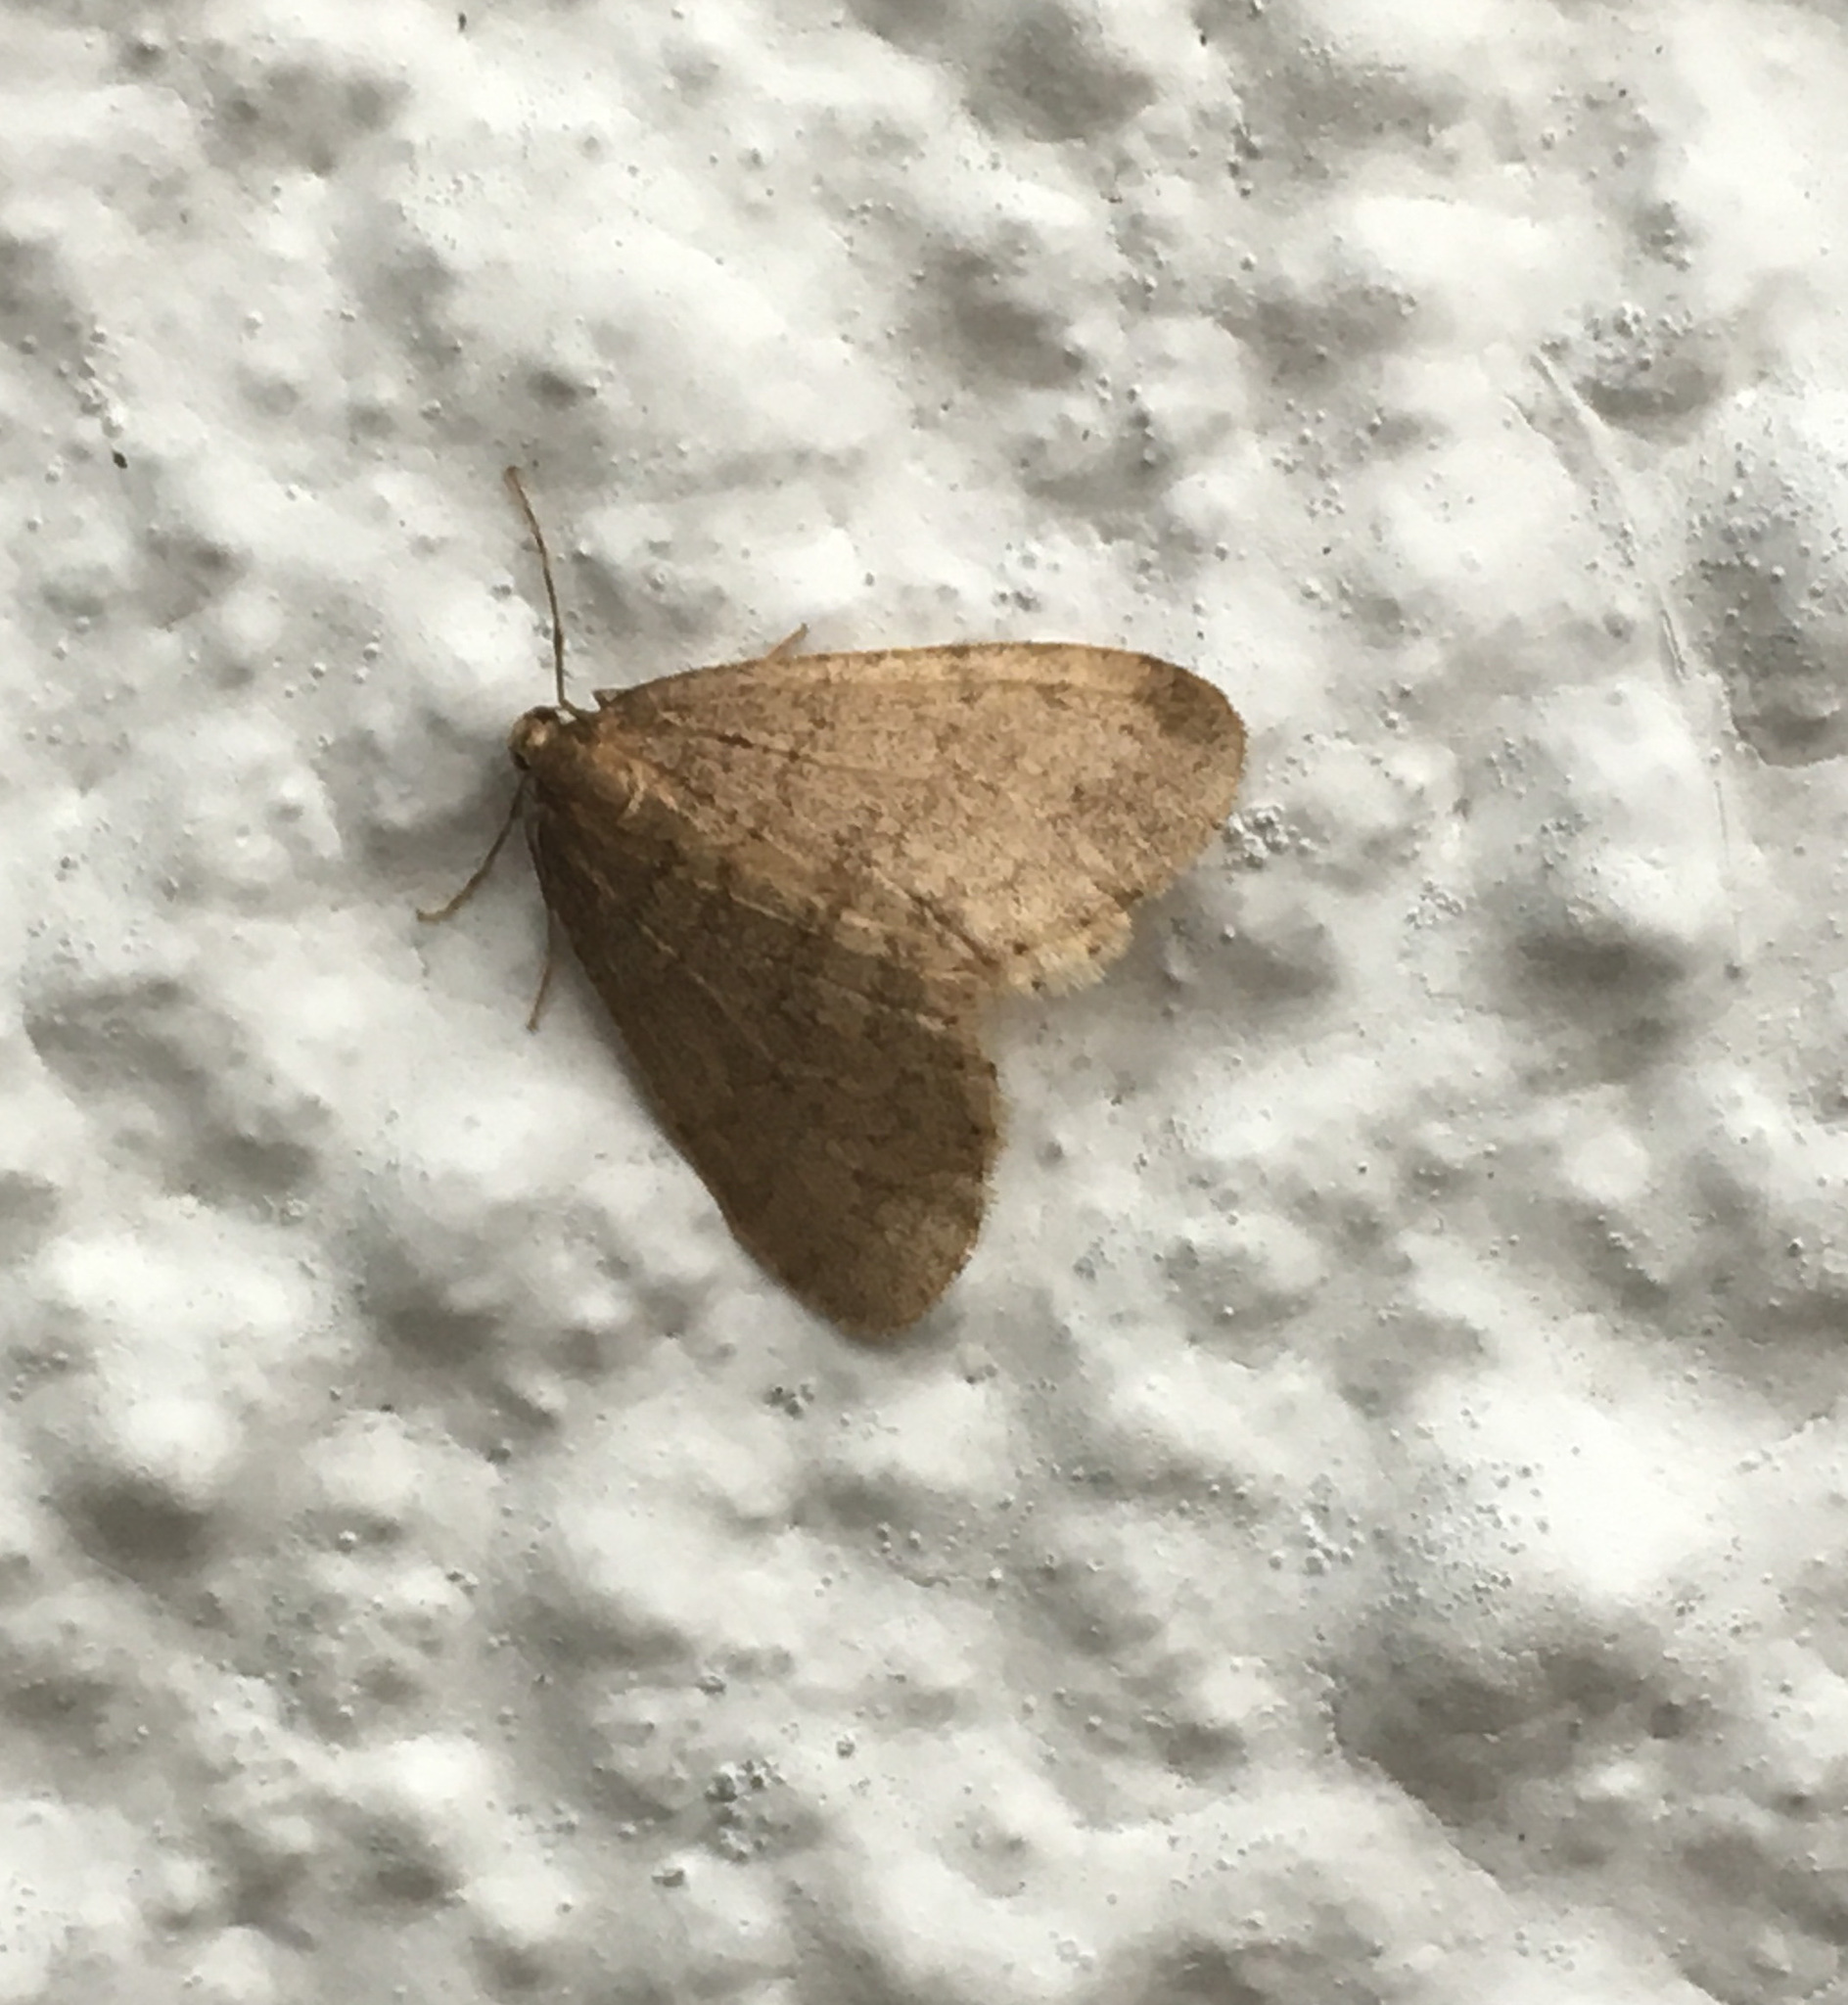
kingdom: Animalia
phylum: Arthropoda
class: Insecta
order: Lepidoptera
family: Geometridae
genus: Operophtera
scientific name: Operophtera brumata
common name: Winter moth
